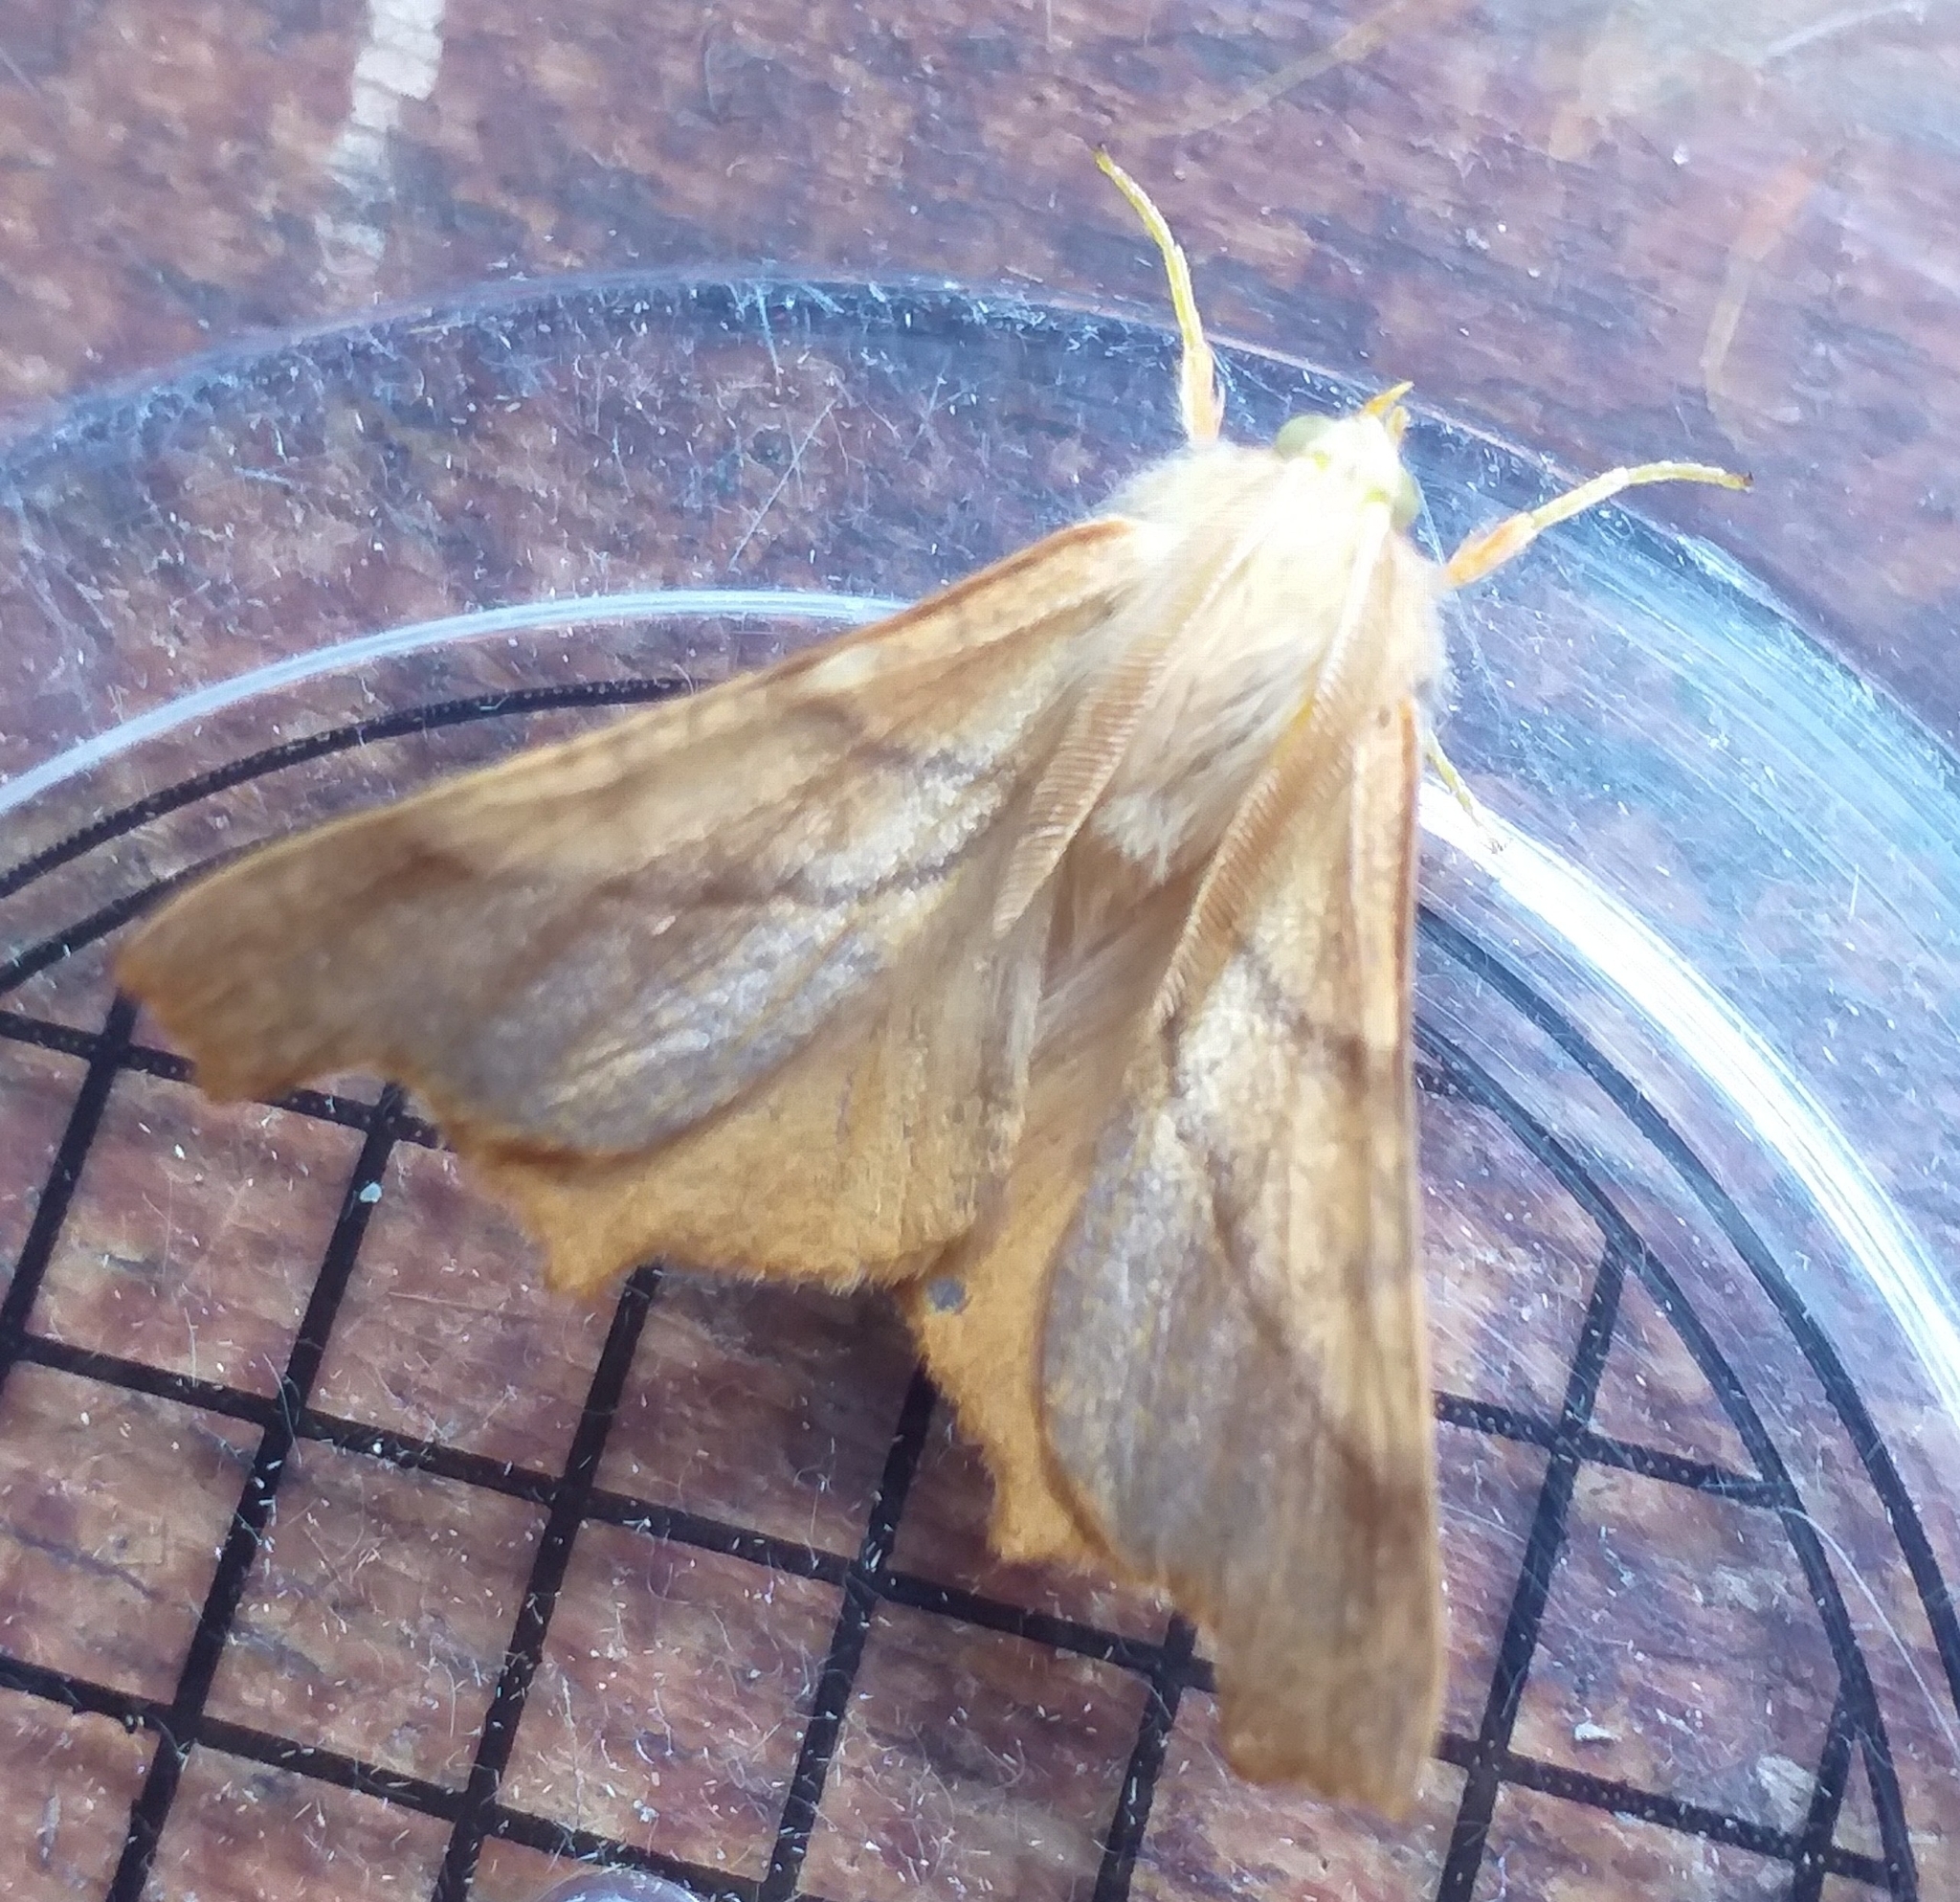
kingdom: Animalia
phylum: Arthropoda
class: Insecta
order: Lepidoptera
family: Geometridae
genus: Ennomos
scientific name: Ennomos fuscantaria
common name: Dusky thorn
